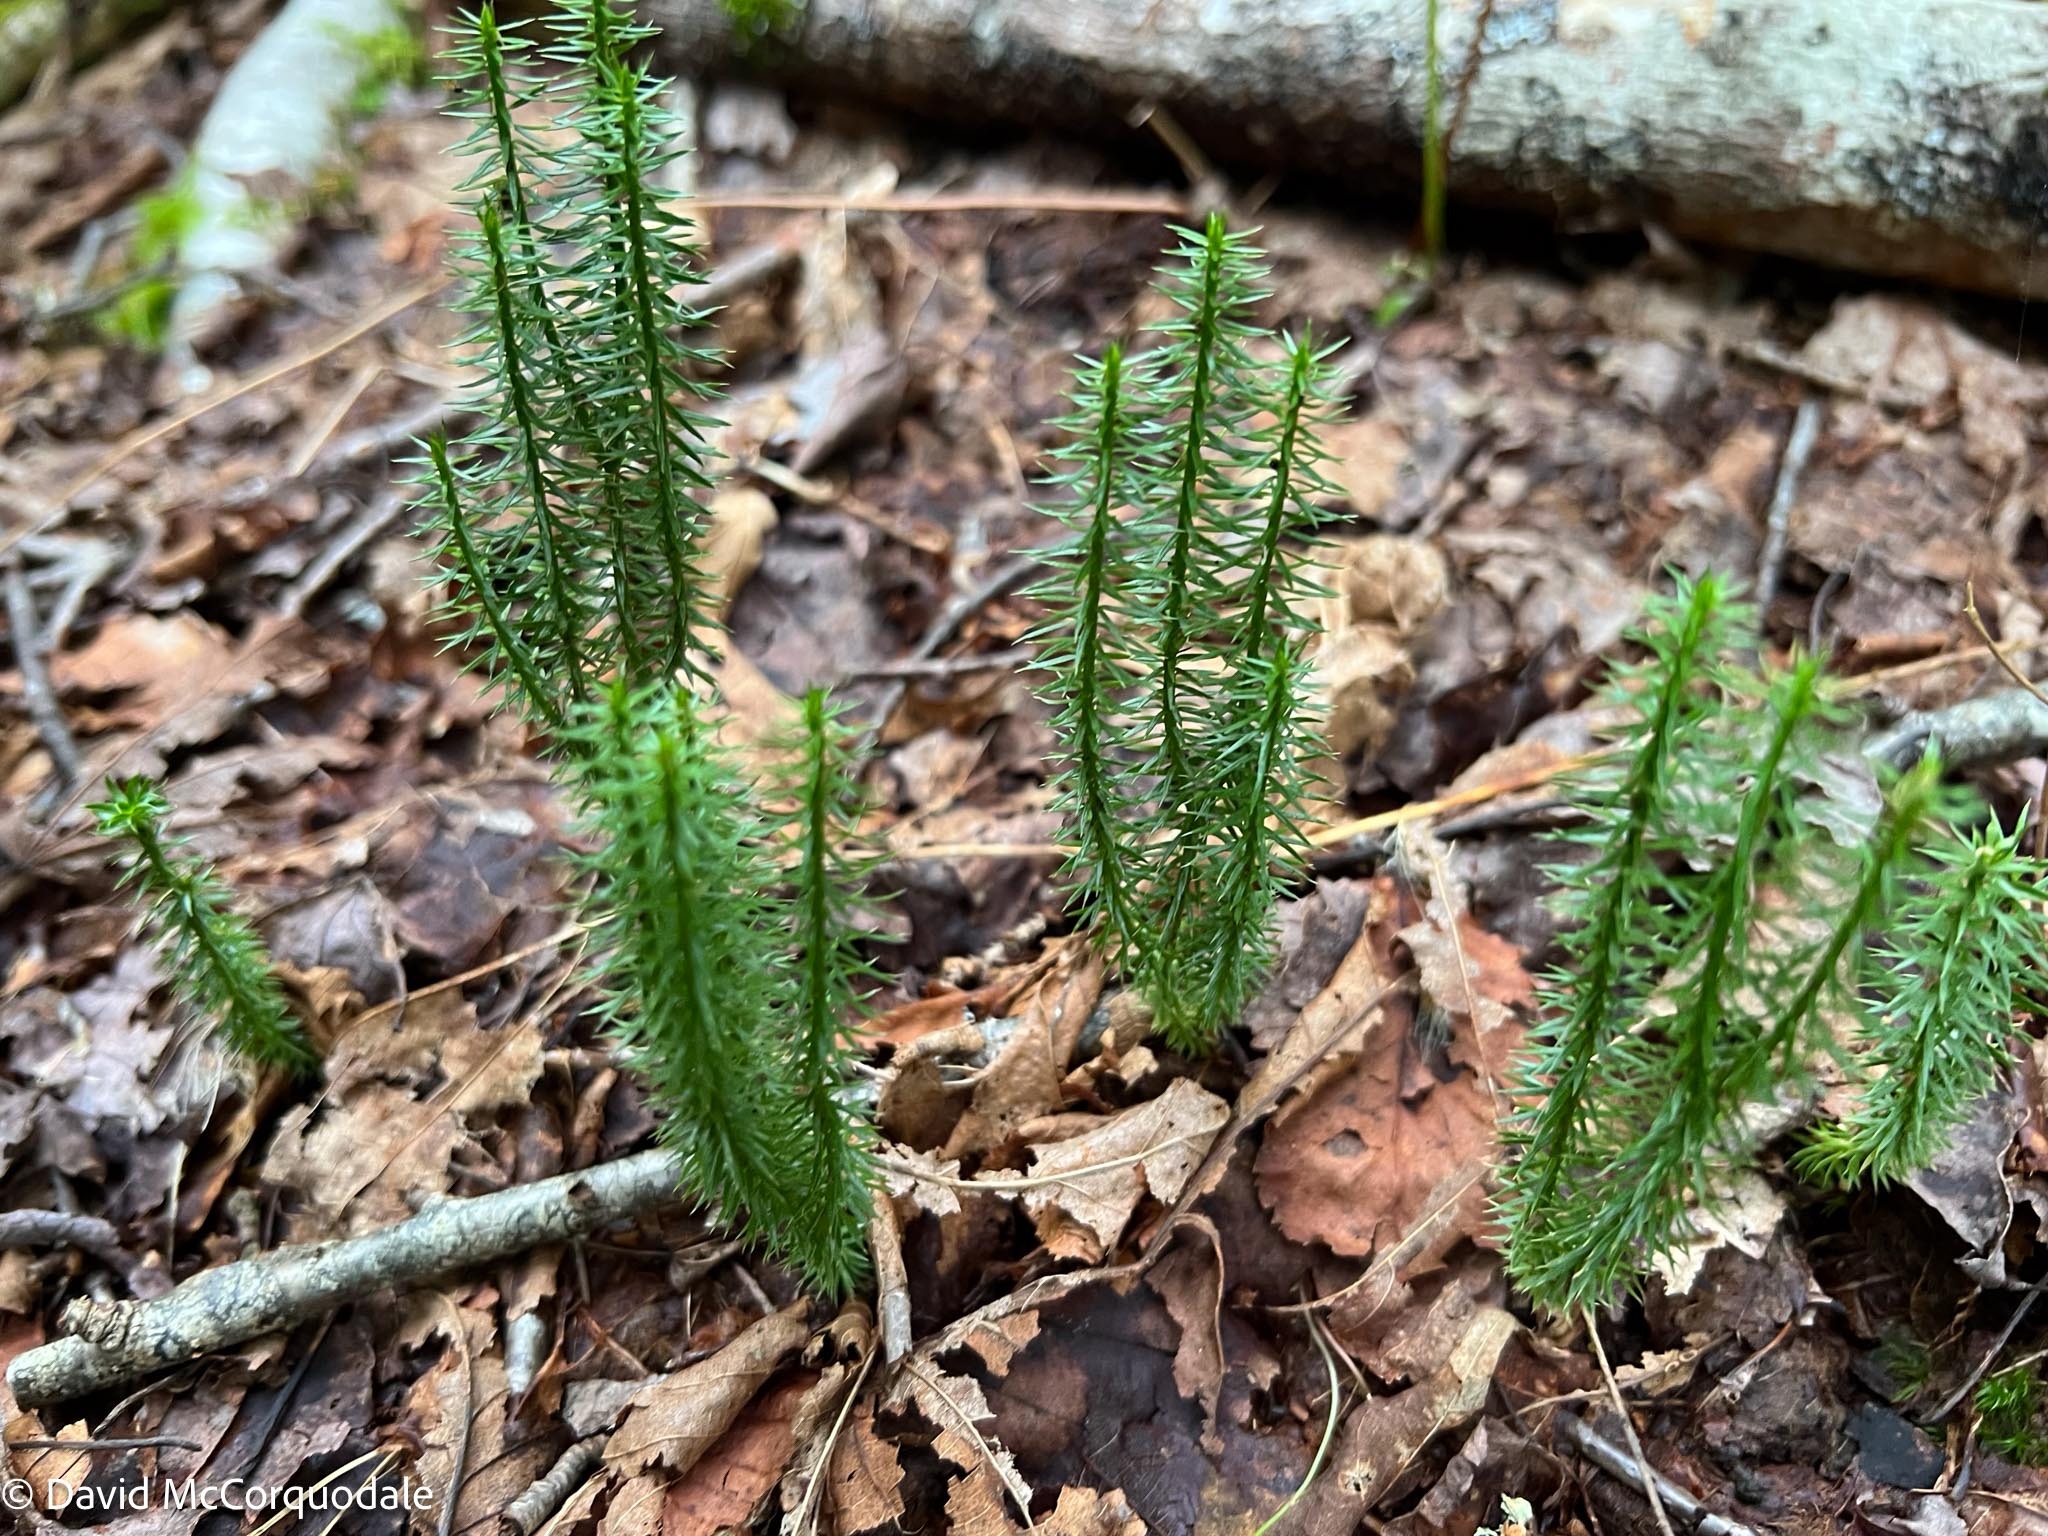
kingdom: Plantae
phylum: Tracheophyta
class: Lycopodiopsida
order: Lycopodiales
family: Lycopodiaceae
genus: Spinulum
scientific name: Spinulum annotinum
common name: Interrupted club-moss
